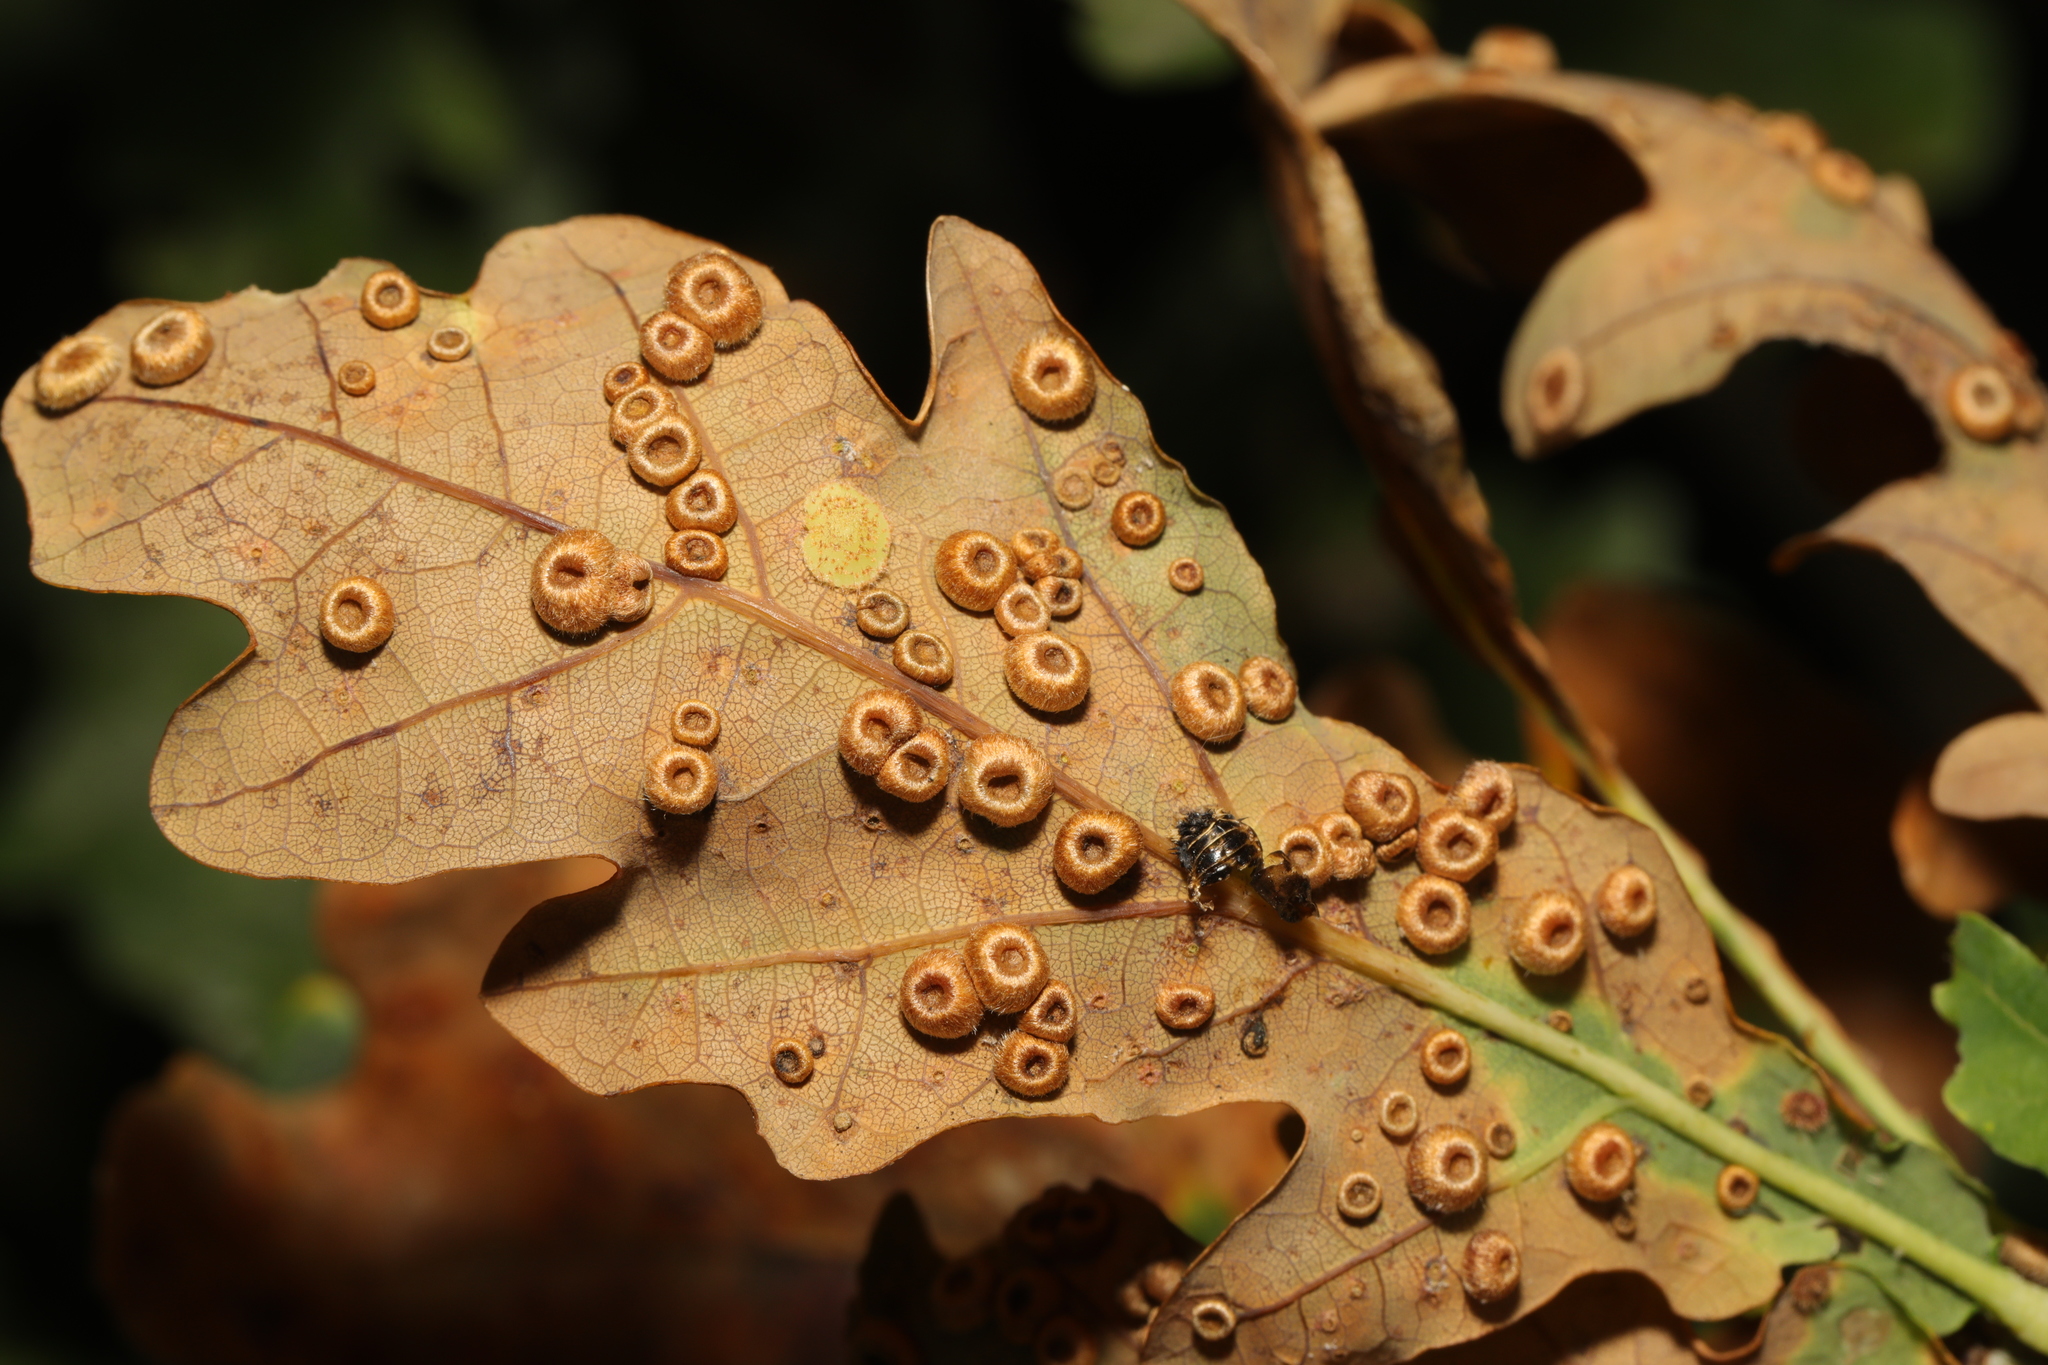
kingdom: Animalia
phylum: Arthropoda
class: Insecta
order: Hymenoptera
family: Cynipidae
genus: Neuroterus
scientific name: Neuroterus numismalis
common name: Silk-button spangle gall
